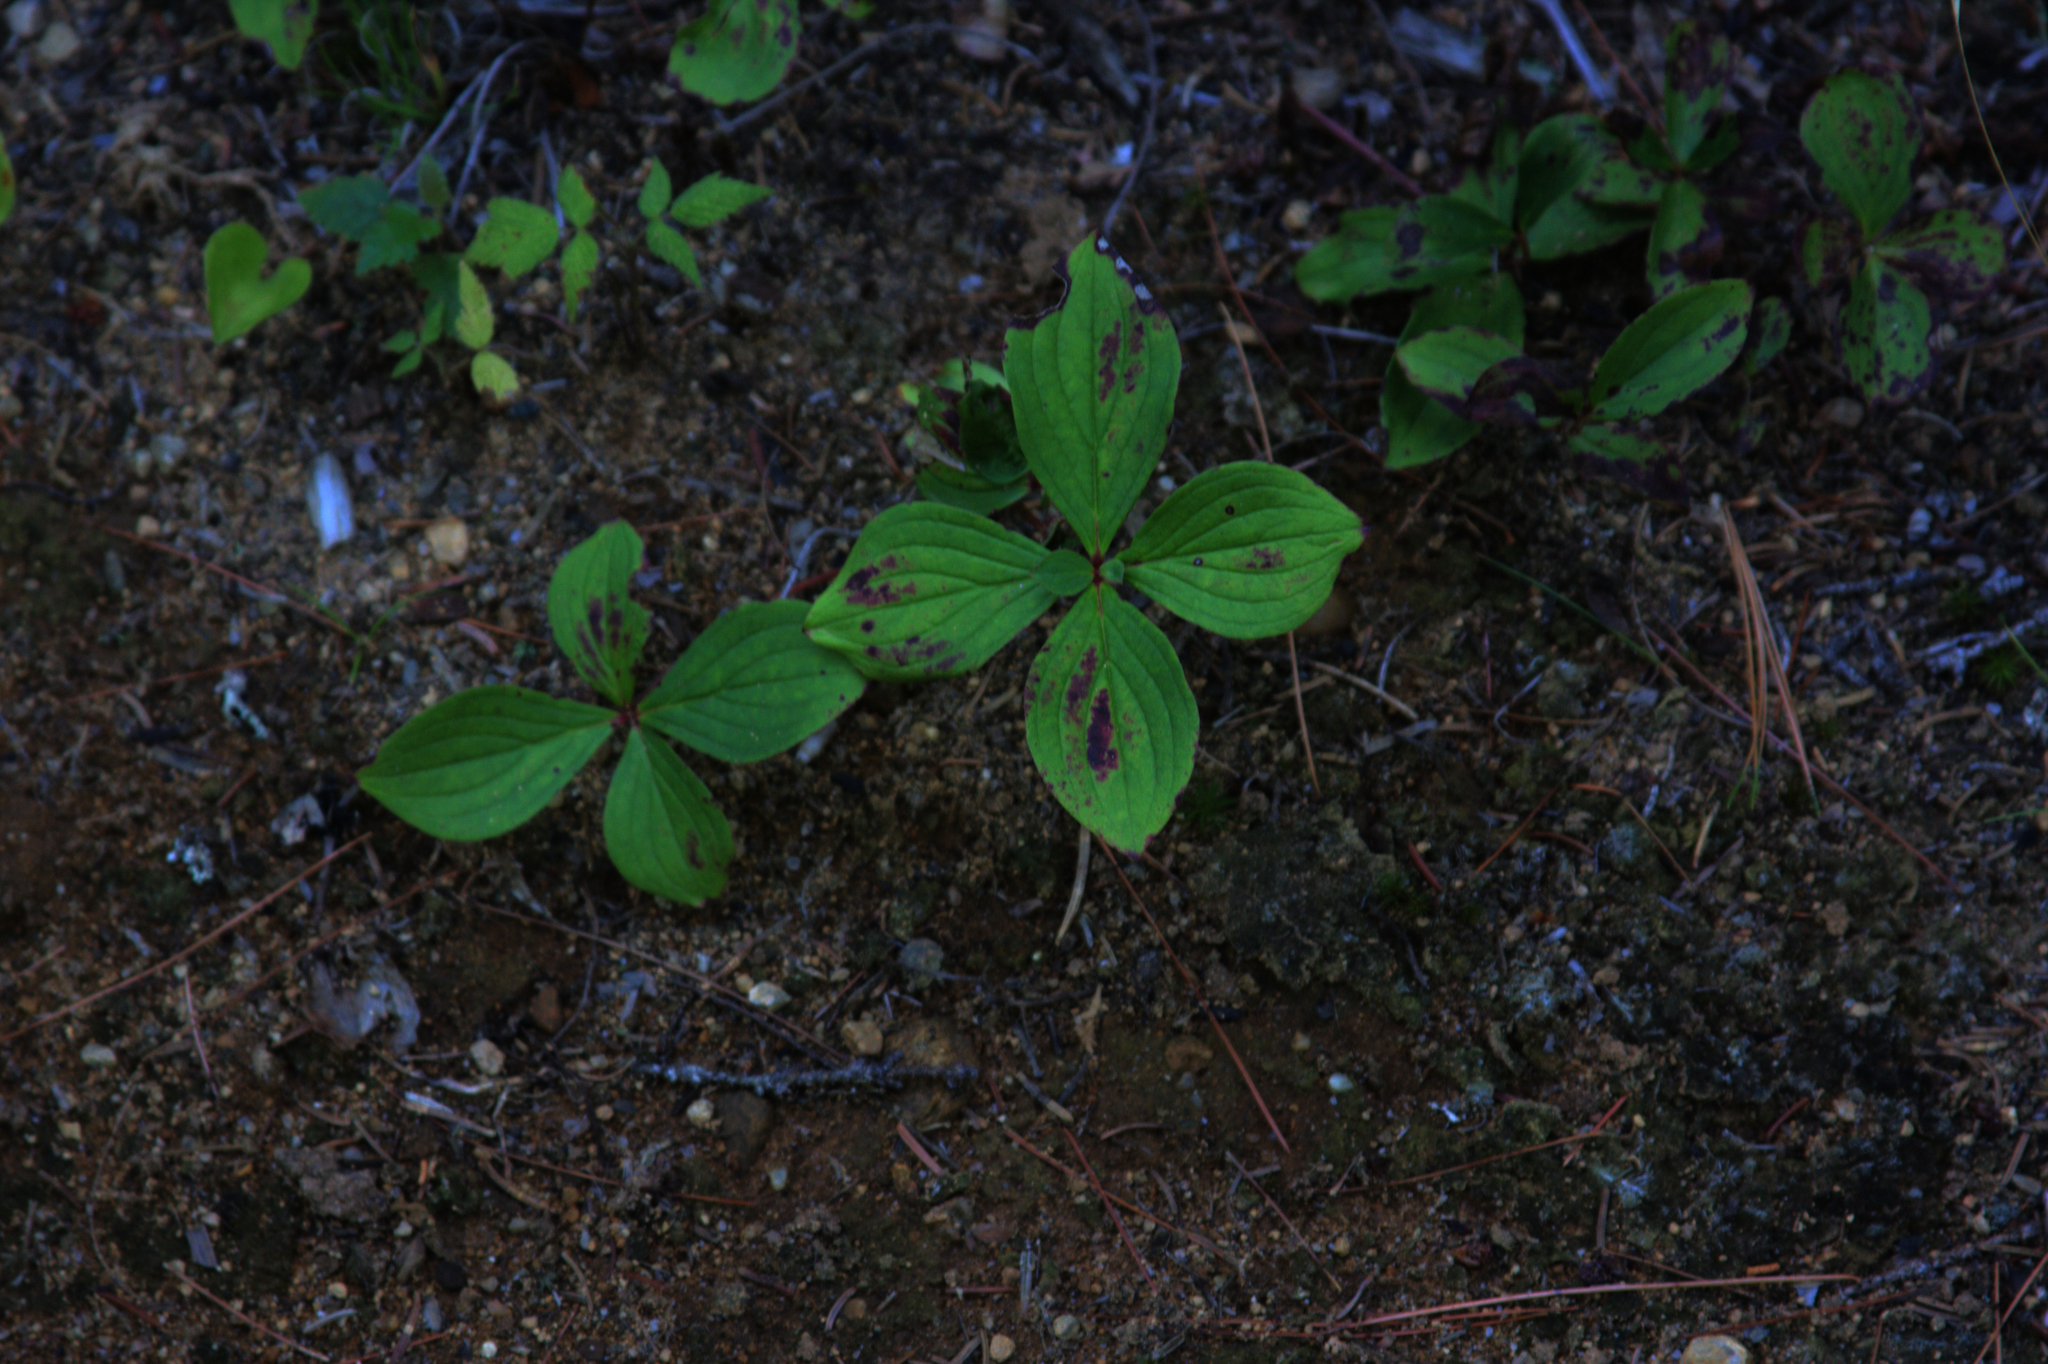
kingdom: Plantae
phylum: Tracheophyta
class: Magnoliopsida
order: Cornales
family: Cornaceae
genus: Cornus
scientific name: Cornus canadensis
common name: Creeping dogwood
